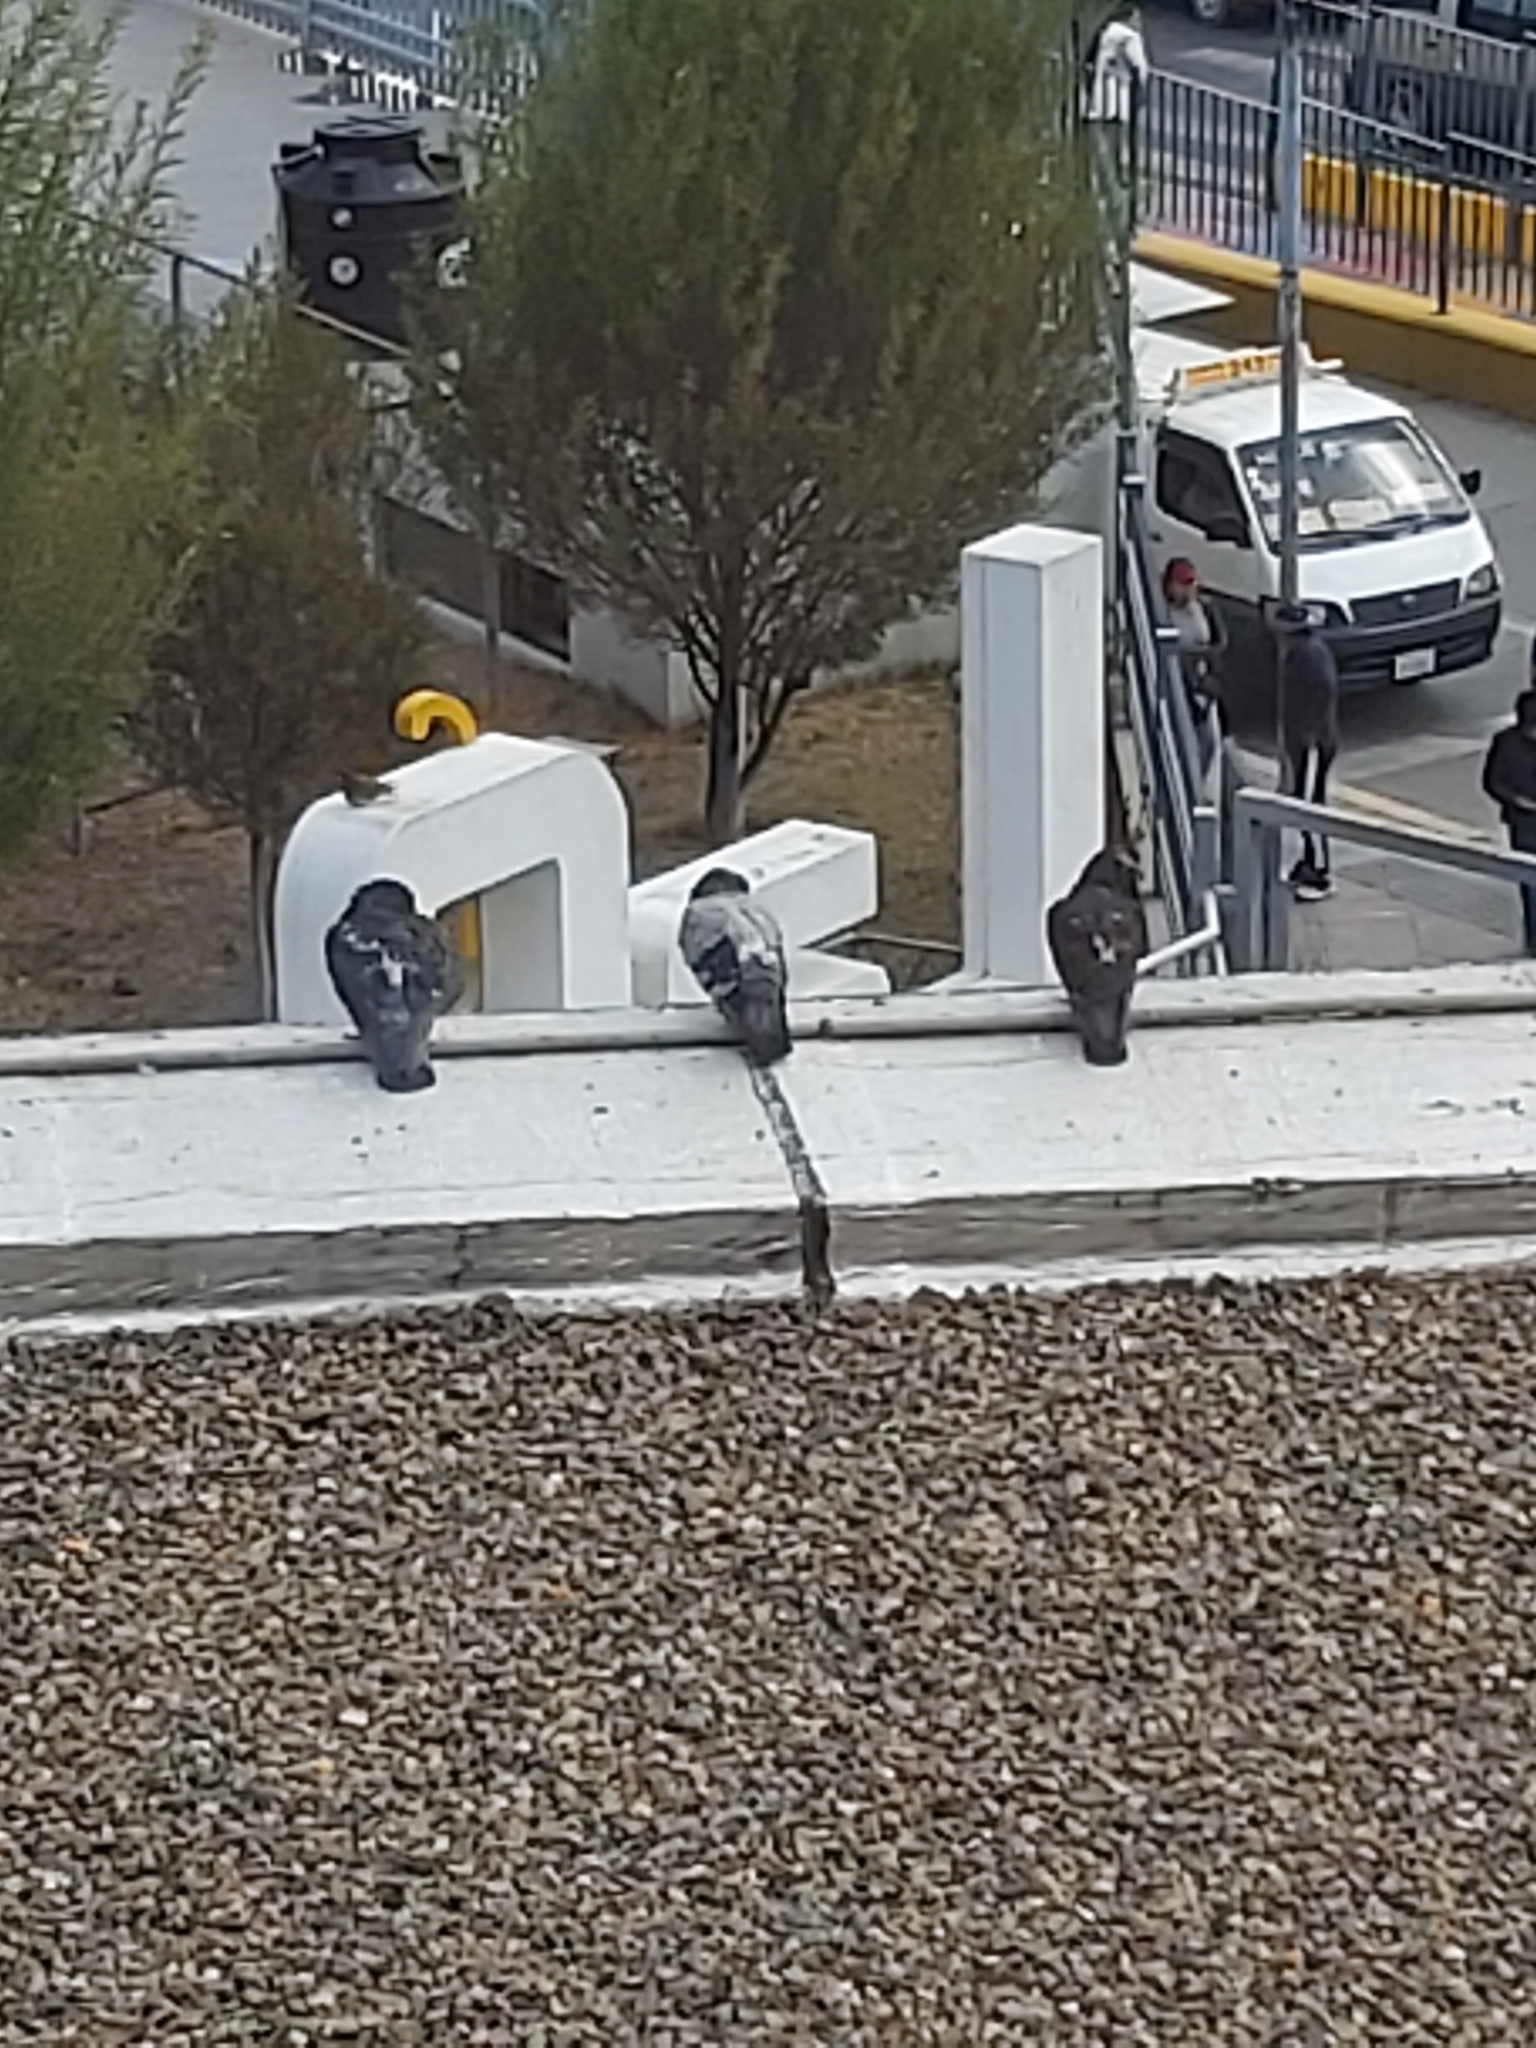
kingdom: Animalia
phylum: Chordata
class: Aves
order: Columbiformes
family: Columbidae
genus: Columba
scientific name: Columba livia
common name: Rock pigeon
